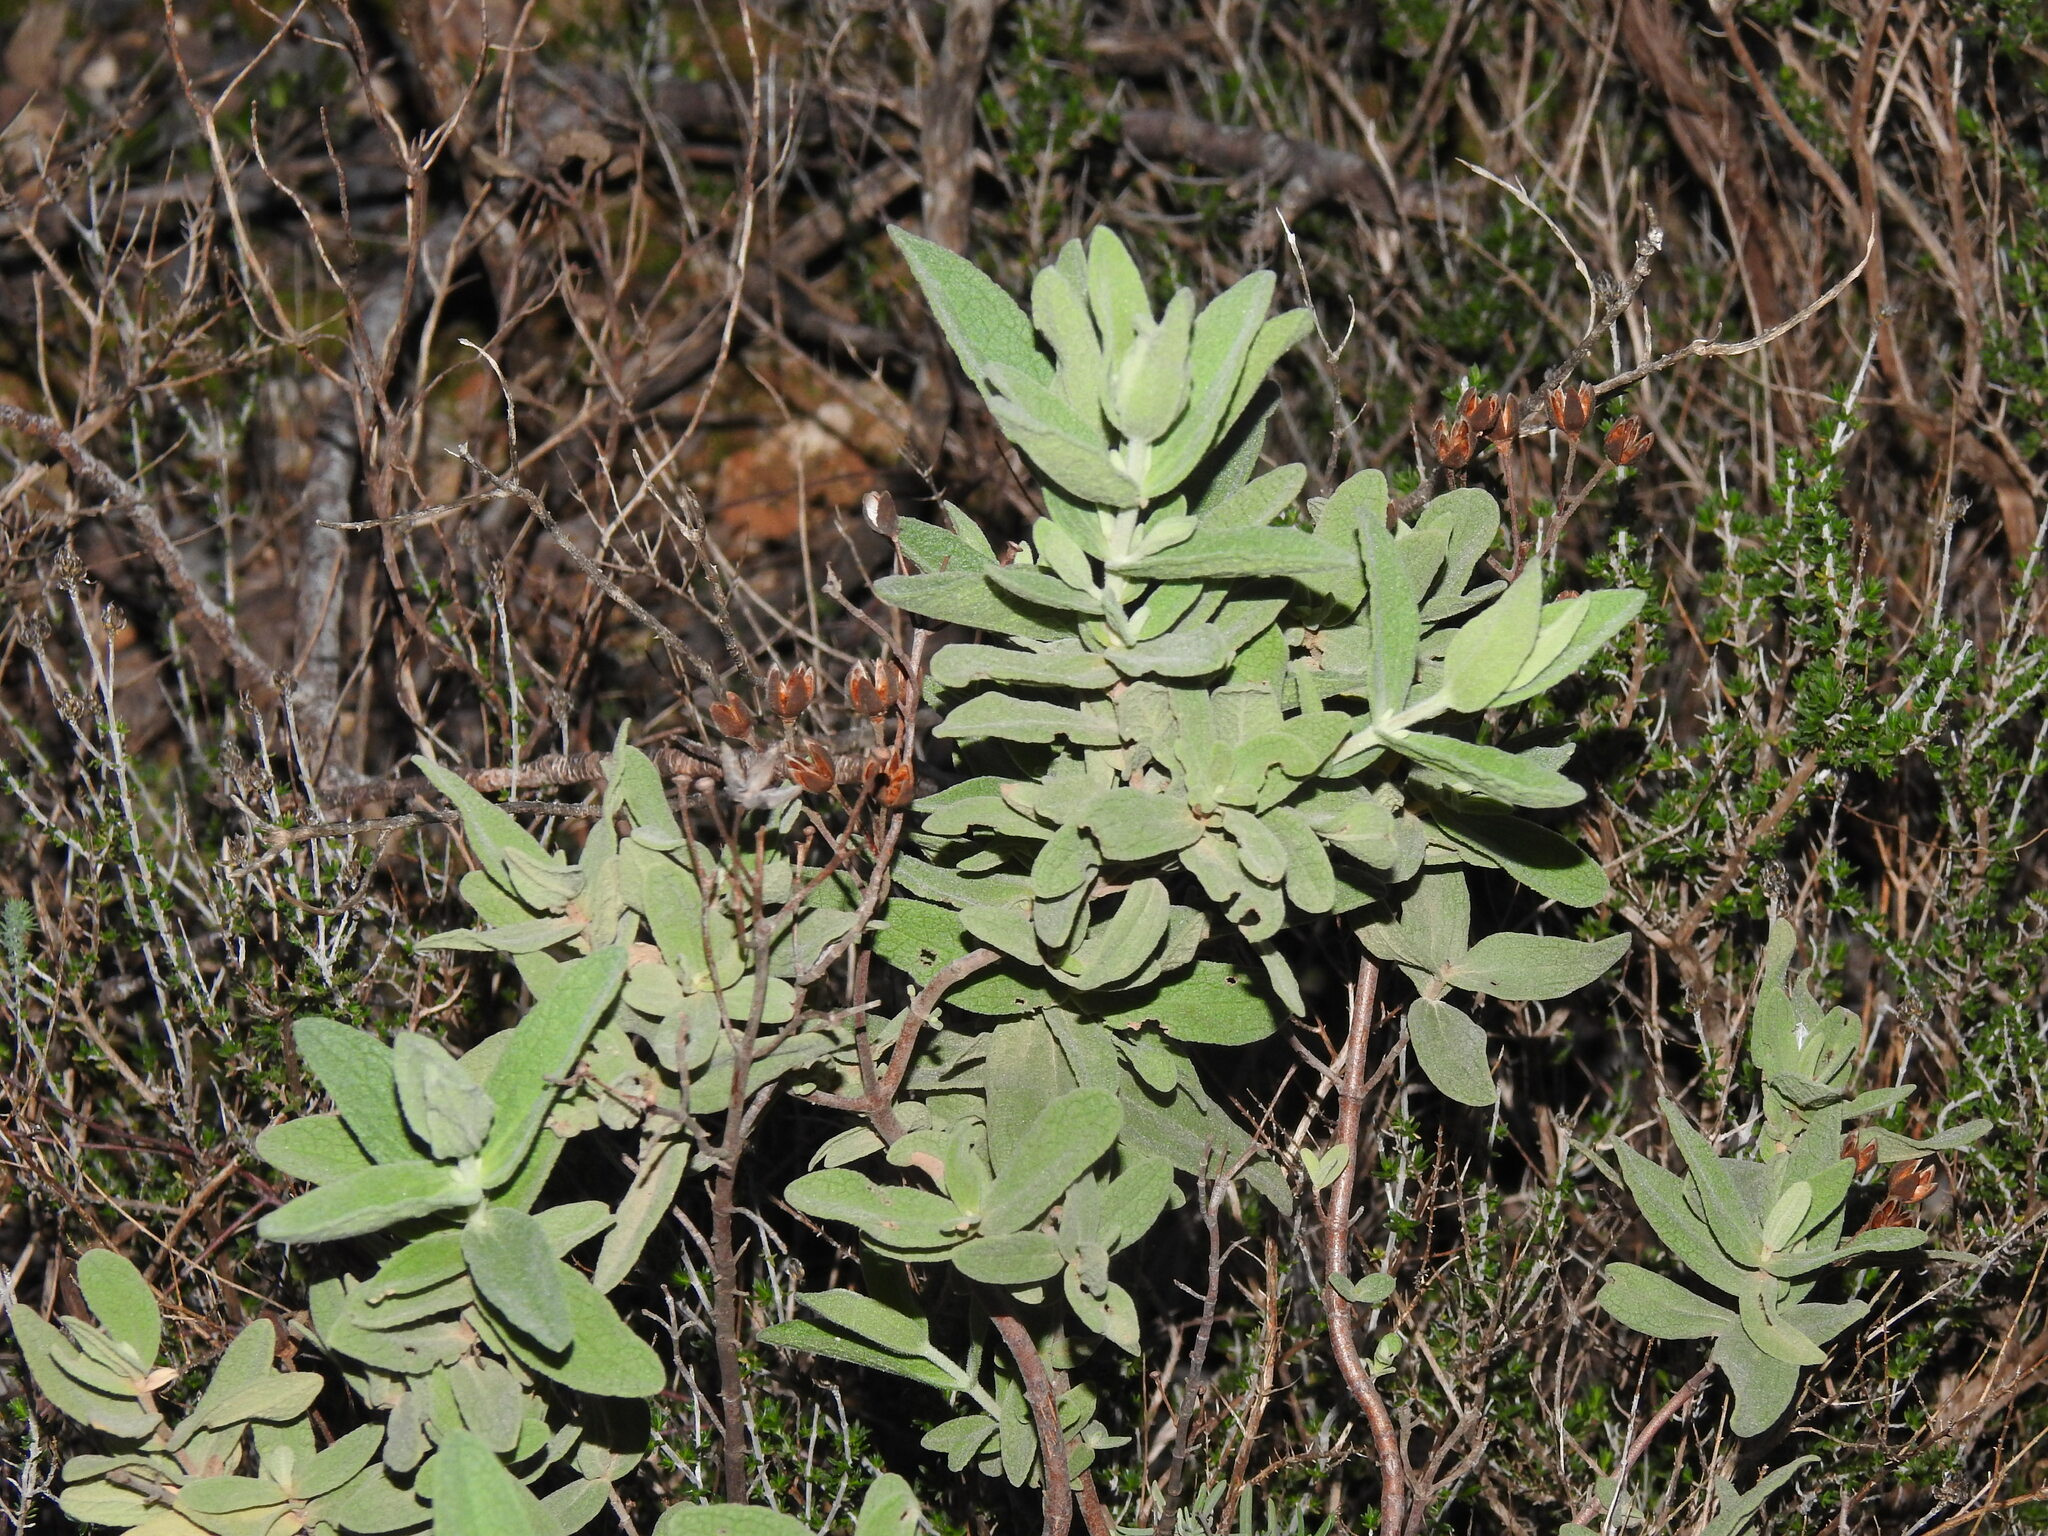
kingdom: Plantae
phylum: Tracheophyta
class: Magnoliopsida
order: Malvales
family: Cistaceae
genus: Cistus
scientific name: Cistus albidus
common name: White-leaf rock-rose
